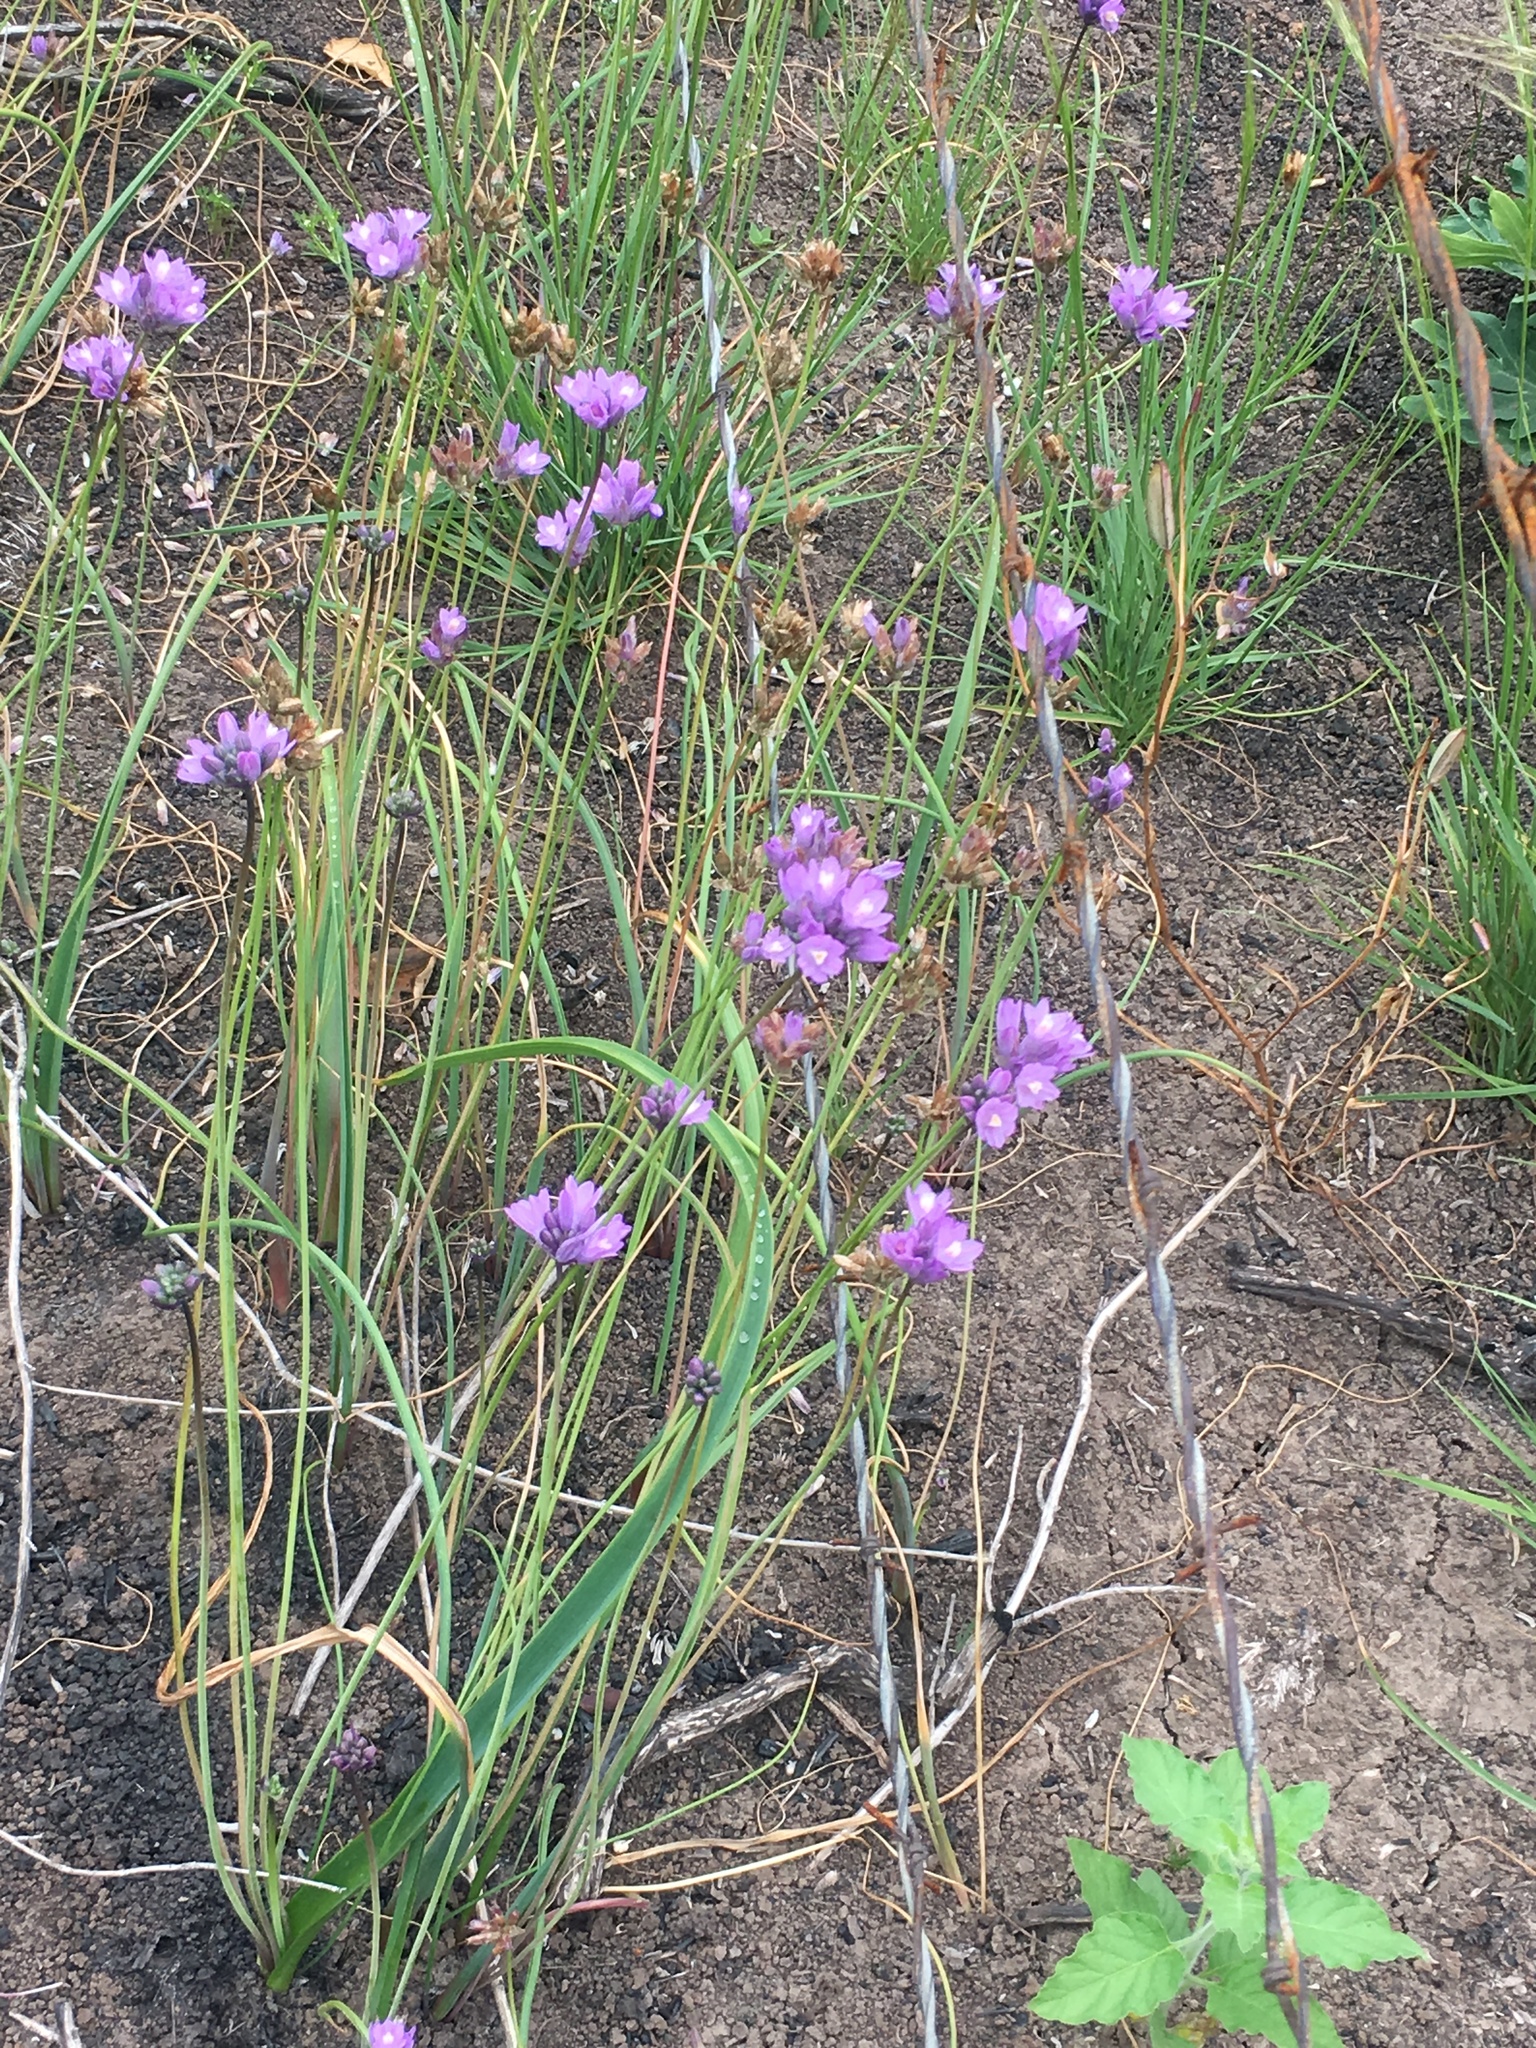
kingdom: Plantae
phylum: Tracheophyta
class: Liliopsida
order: Asparagales
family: Asparagaceae
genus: Dipterostemon
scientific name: Dipterostemon capitatus
